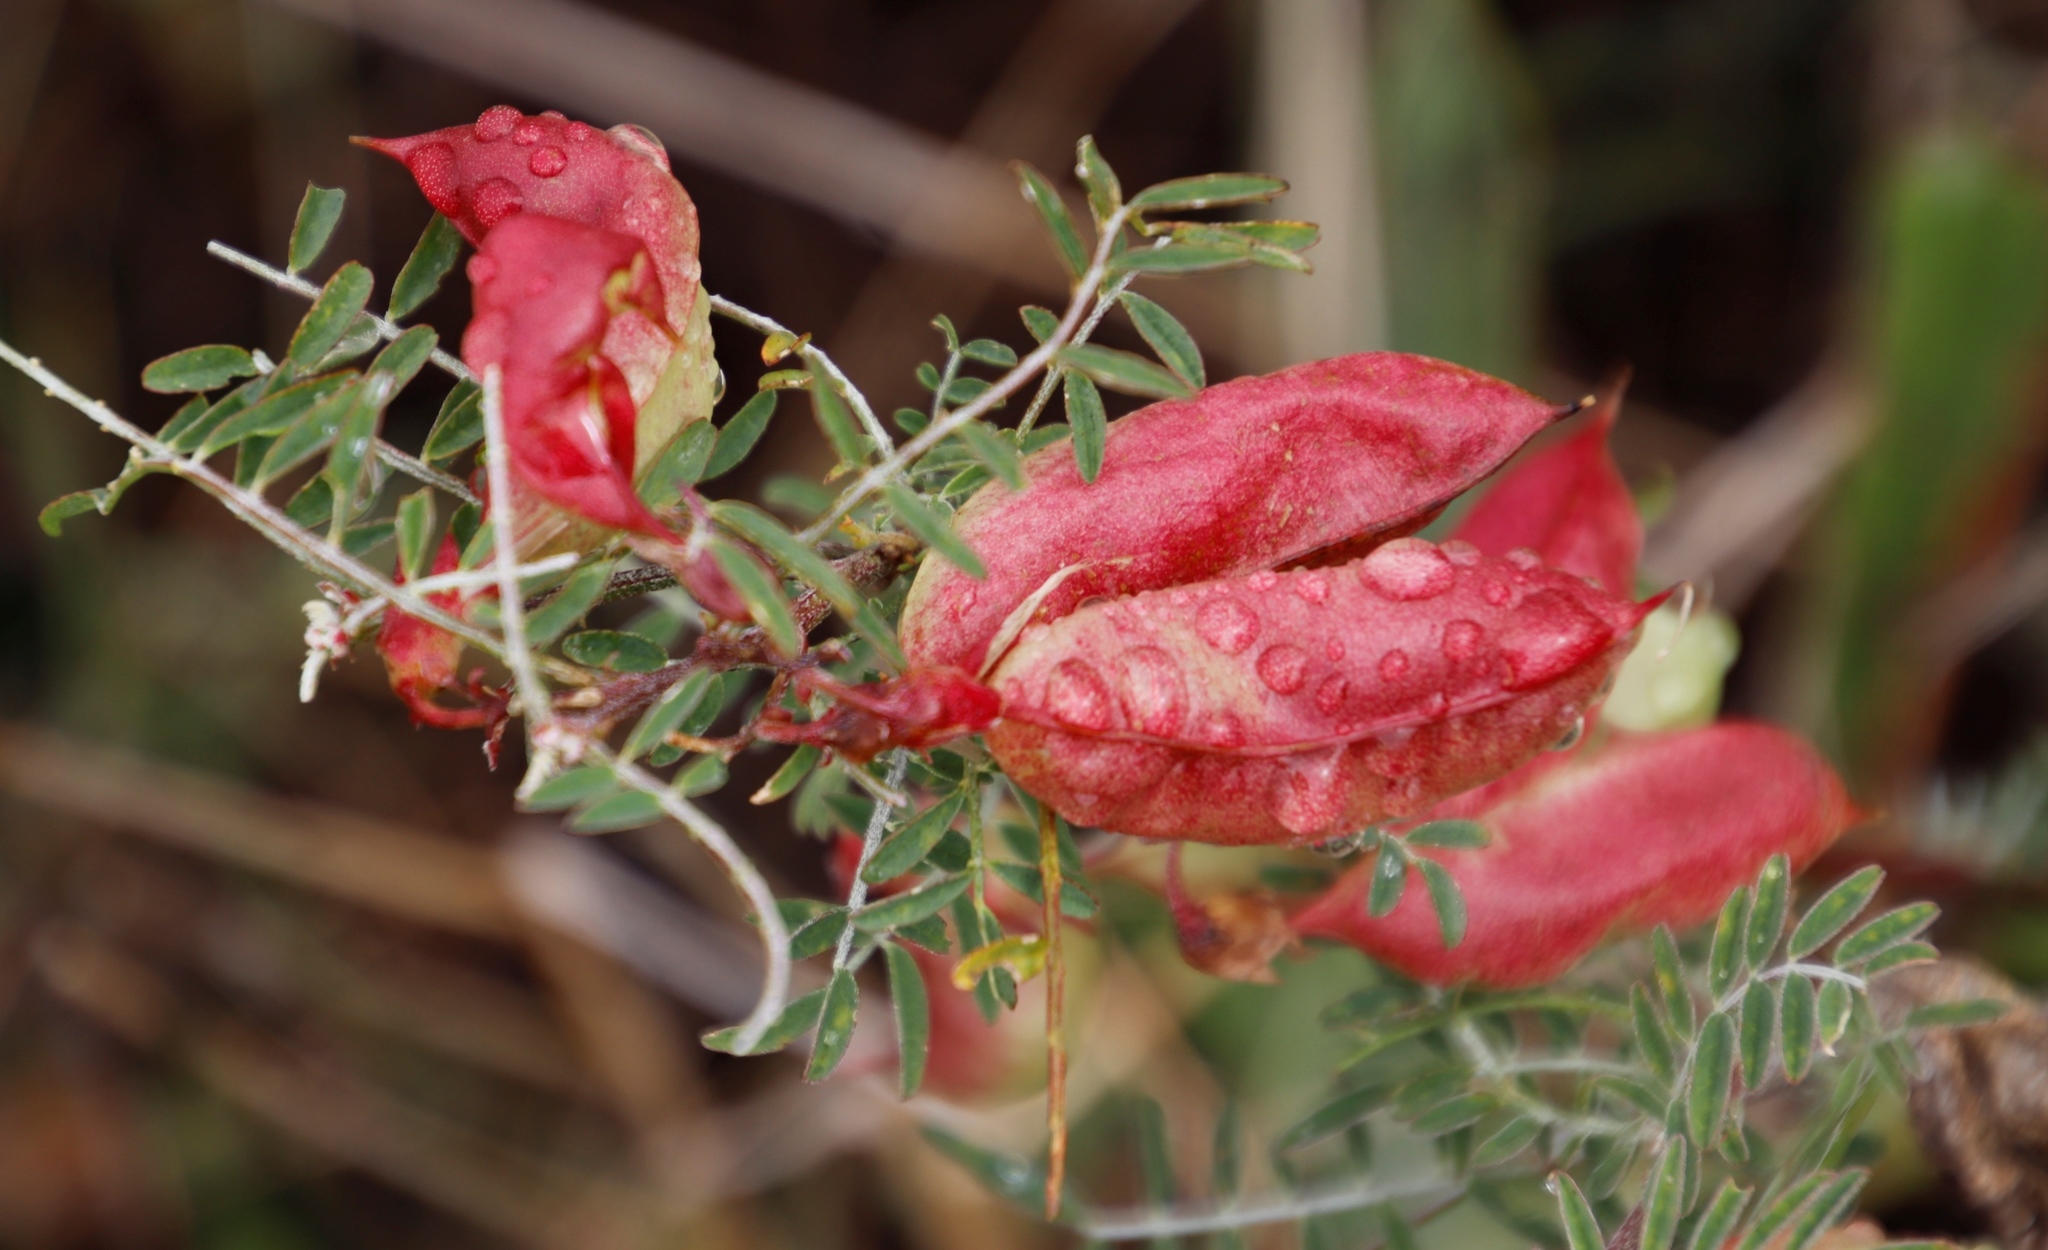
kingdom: Plantae
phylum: Tracheophyta
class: Magnoliopsida
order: Fabales
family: Fabaceae
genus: Lessertia
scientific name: Lessertia frutescens
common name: Balloon-pea
